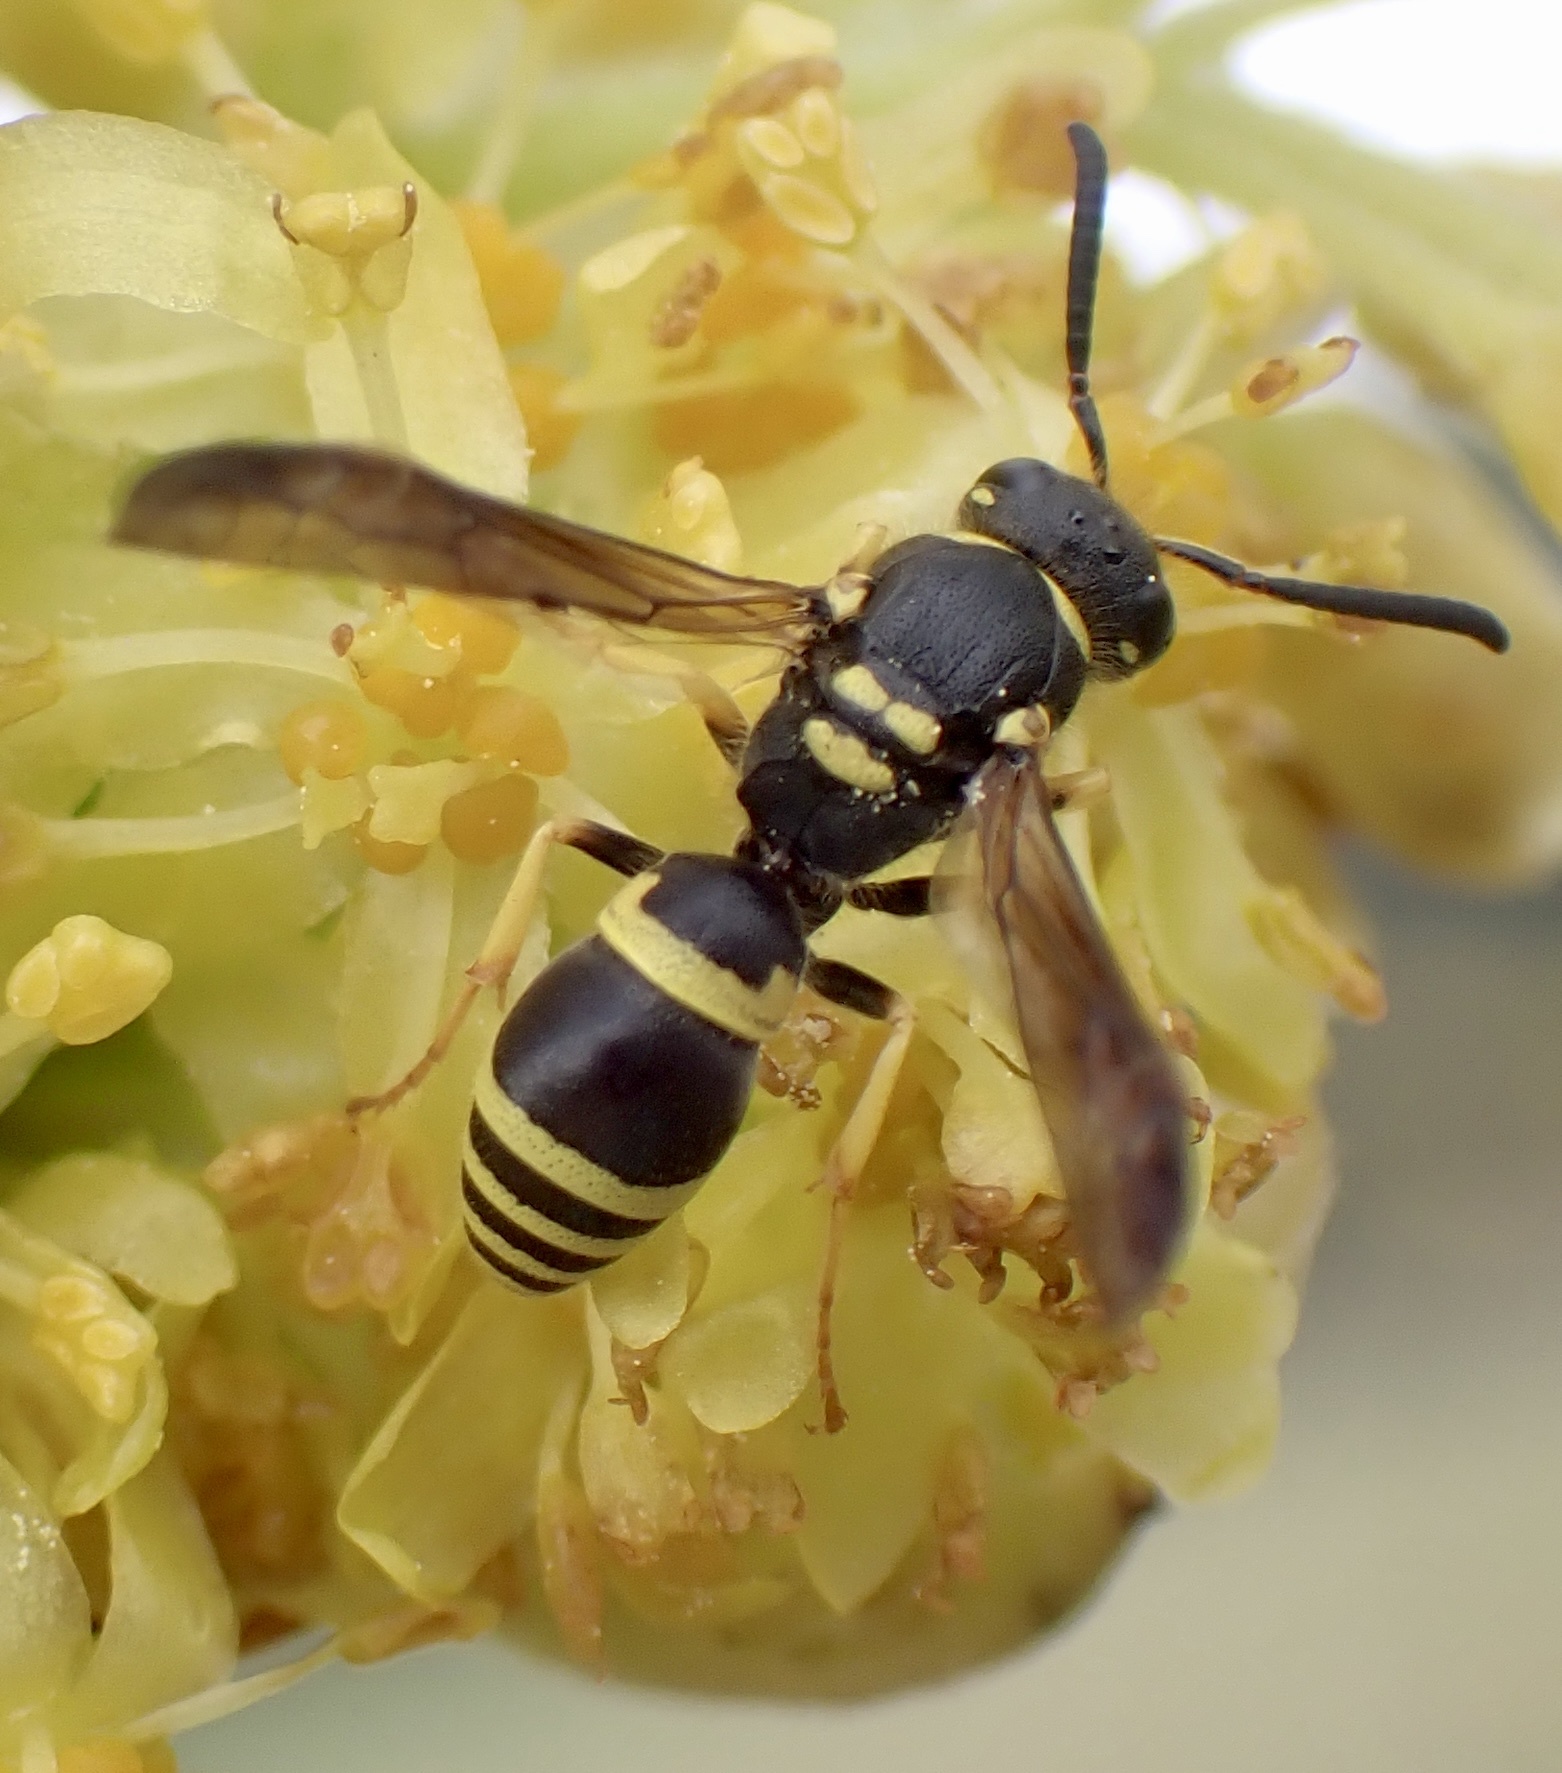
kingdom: Animalia
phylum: Arthropoda
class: Insecta
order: Hymenoptera
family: Vespidae
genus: Ancistrocerus
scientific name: Ancistrocerus adiabatus
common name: Bramble mason wasp
